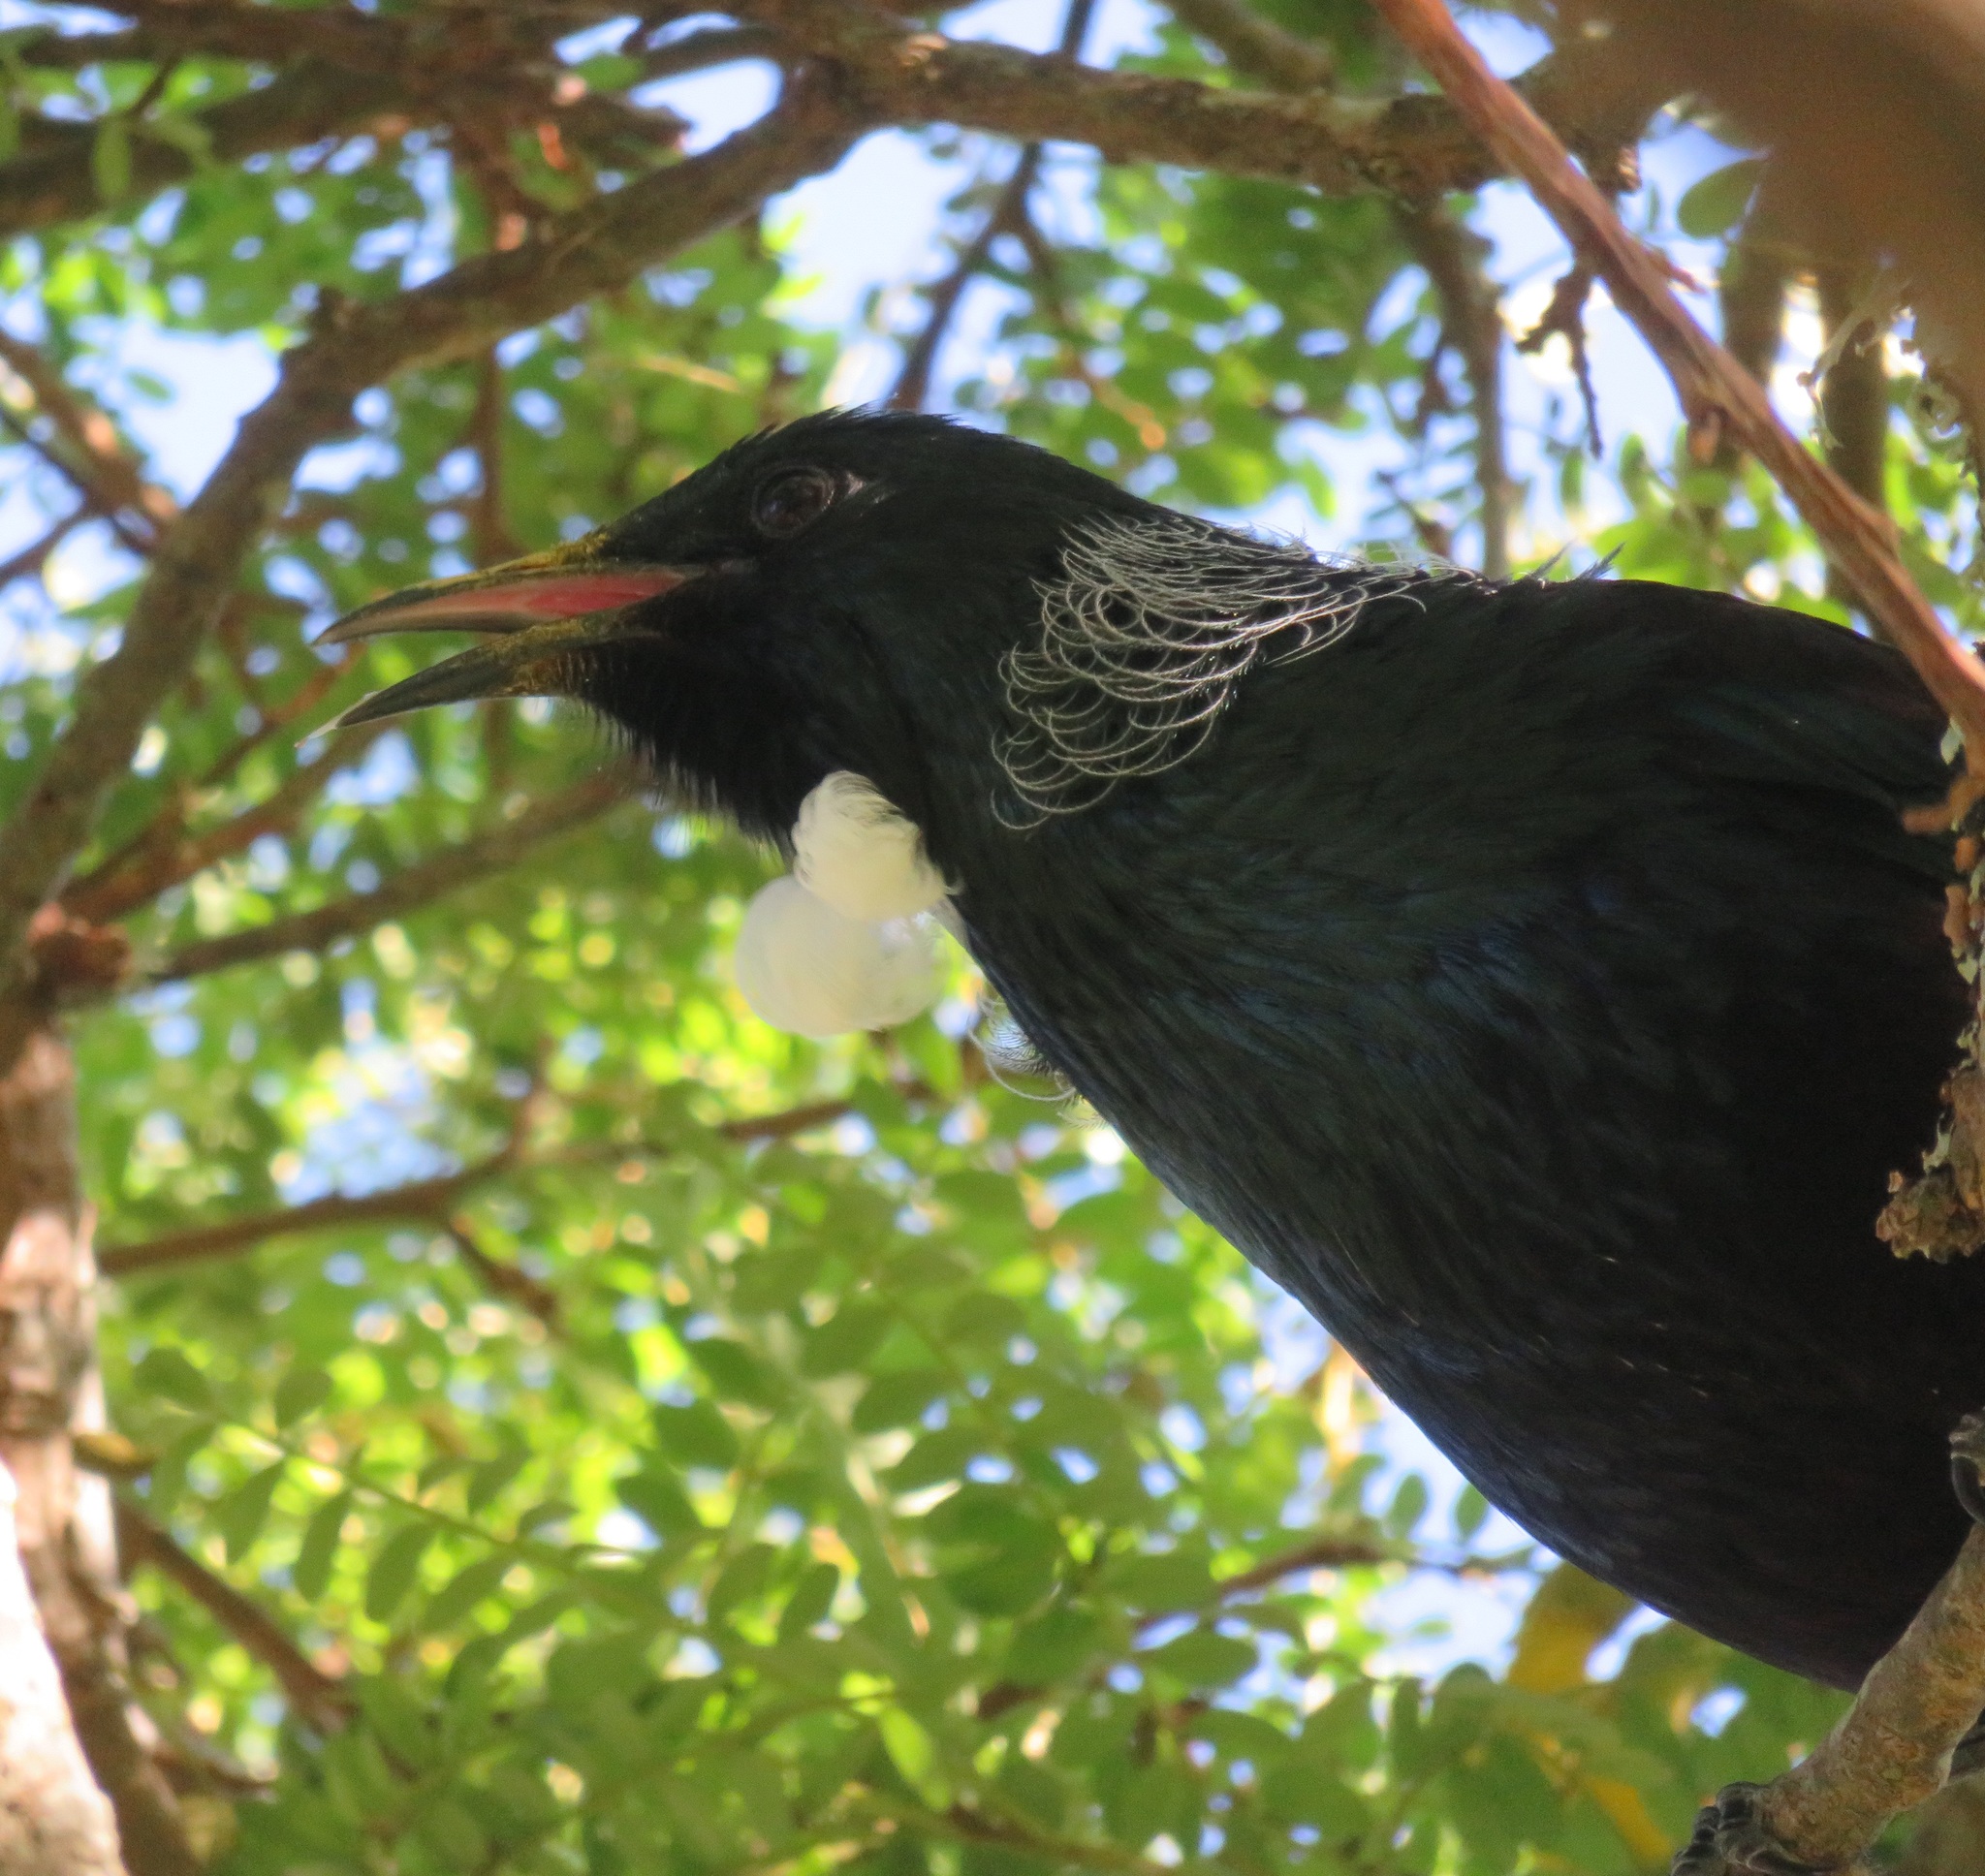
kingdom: Animalia
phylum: Chordata
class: Aves
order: Passeriformes
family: Meliphagidae
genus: Prosthemadera
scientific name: Prosthemadera novaeseelandiae
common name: Tui
